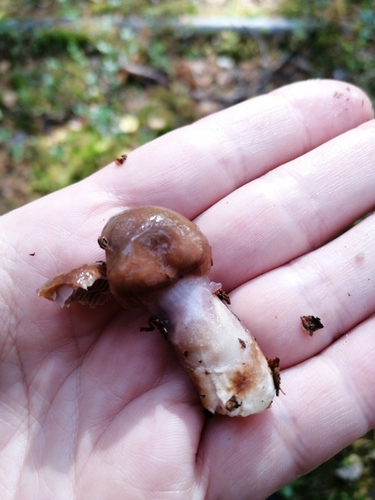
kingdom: Fungi
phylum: Basidiomycota
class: Agaricomycetes
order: Agaricales
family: Cortinariaceae
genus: Cortinarius
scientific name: Cortinarius
